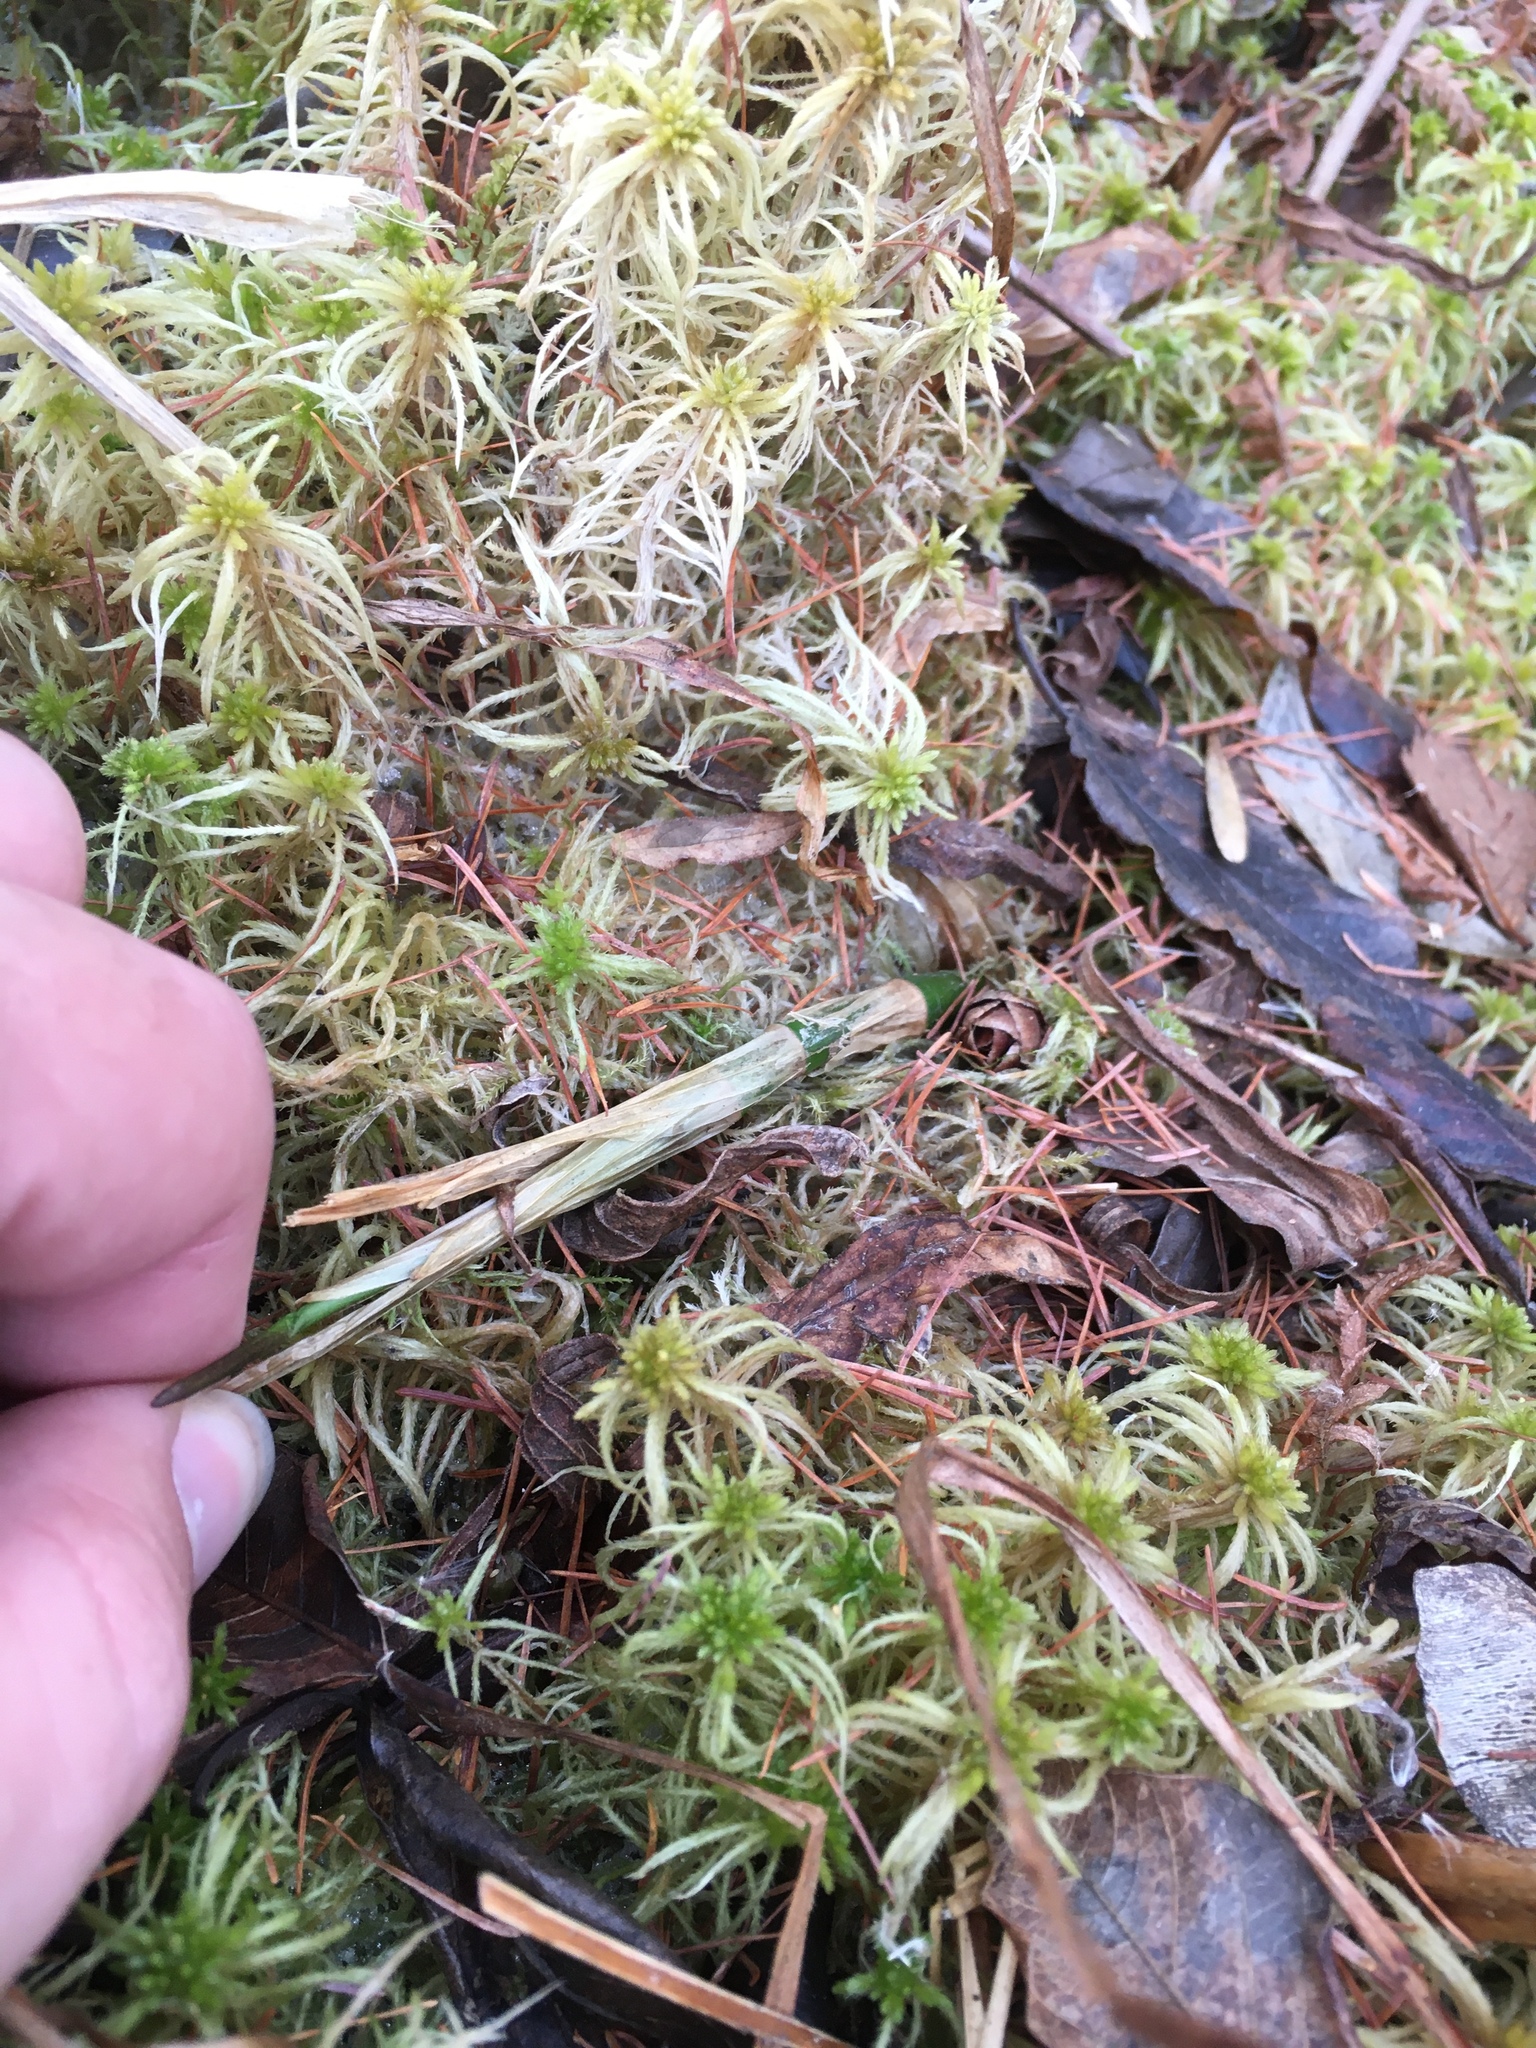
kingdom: Plantae
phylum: Tracheophyta
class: Magnoliopsida
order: Asterales
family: Menyanthaceae
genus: Menyanthes
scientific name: Menyanthes trifoliata
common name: Bogbean
